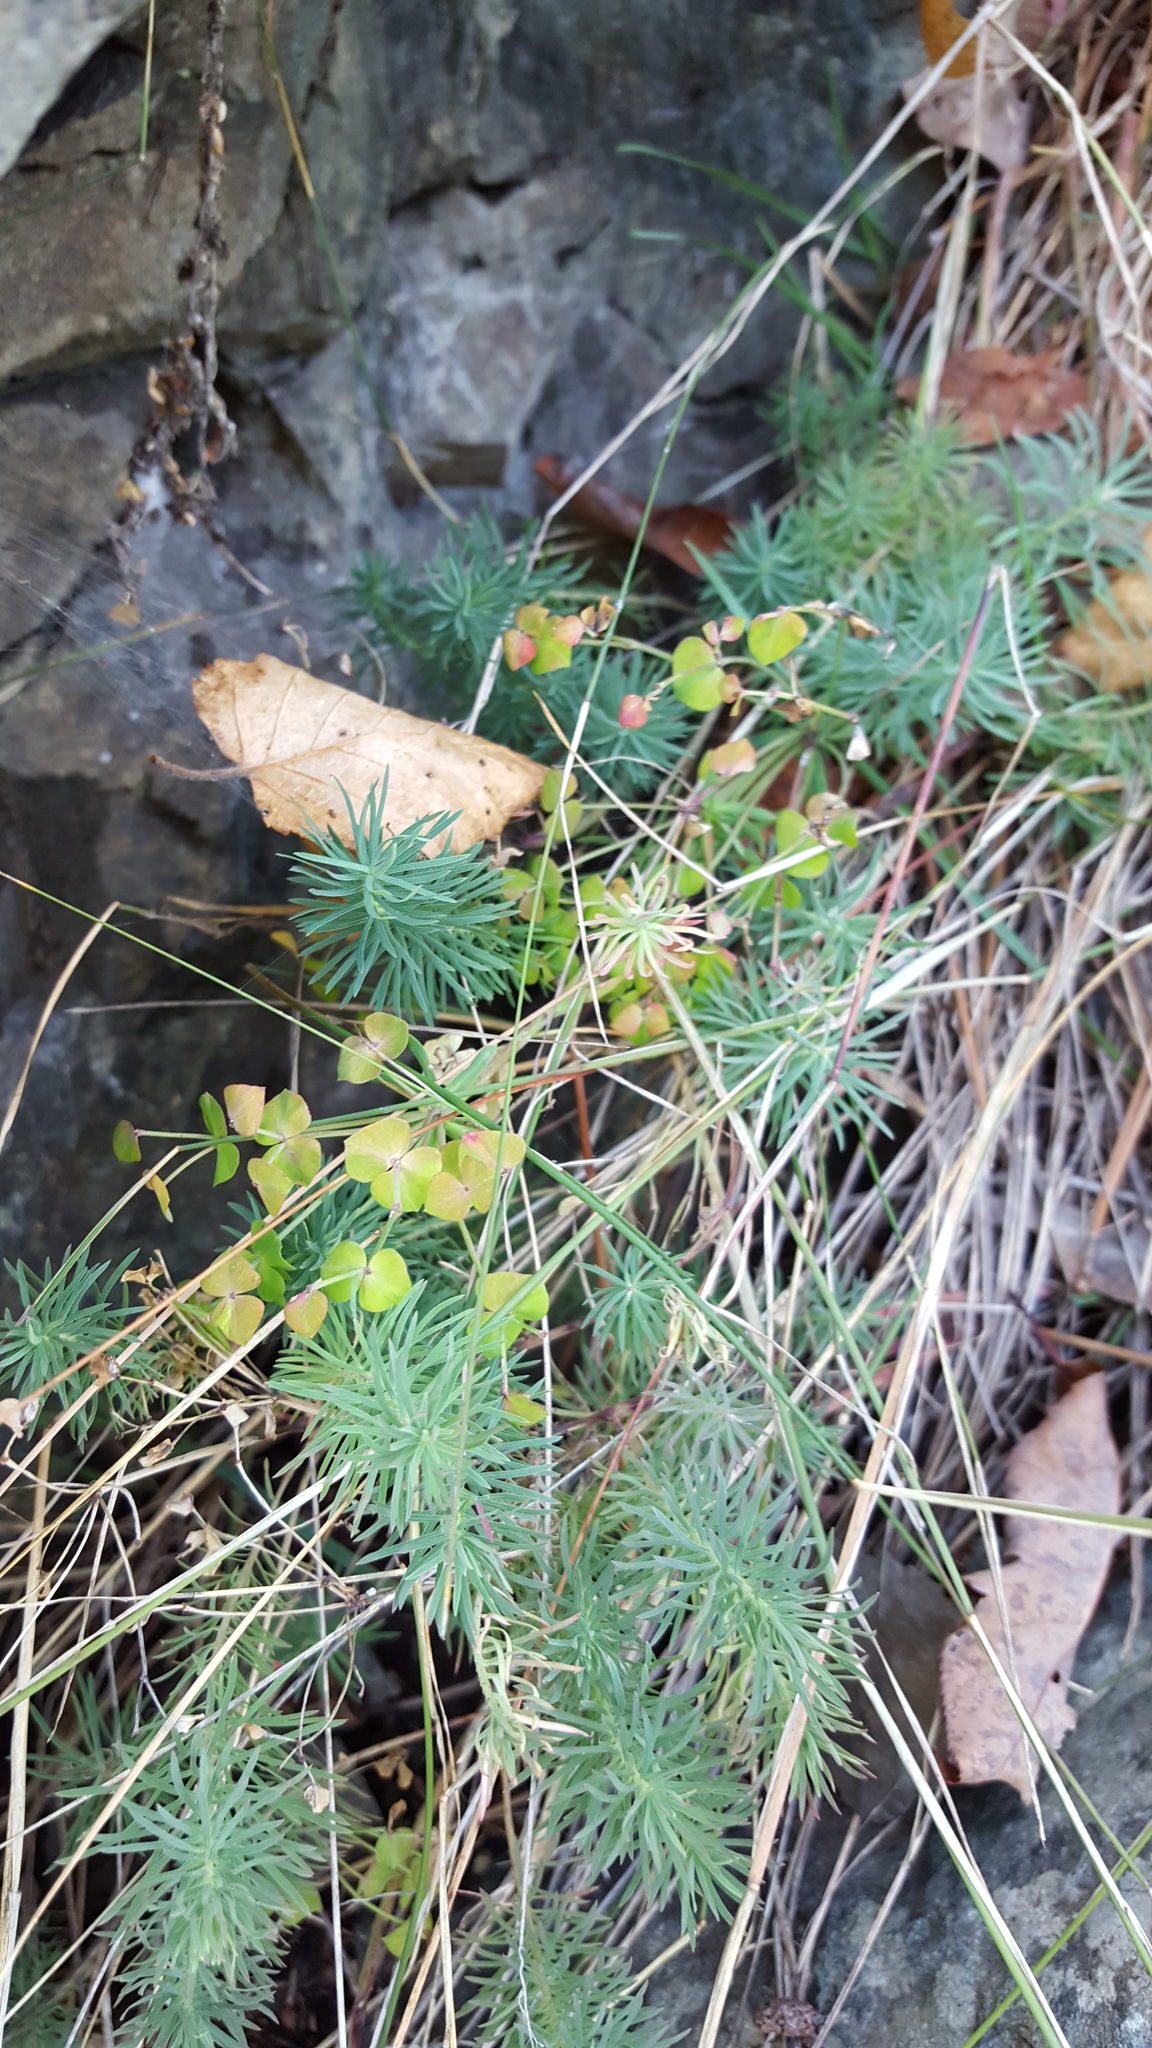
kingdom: Plantae
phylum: Tracheophyta
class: Magnoliopsida
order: Malpighiales
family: Euphorbiaceae
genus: Euphorbia
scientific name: Euphorbia cyparissias
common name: Cypress spurge
